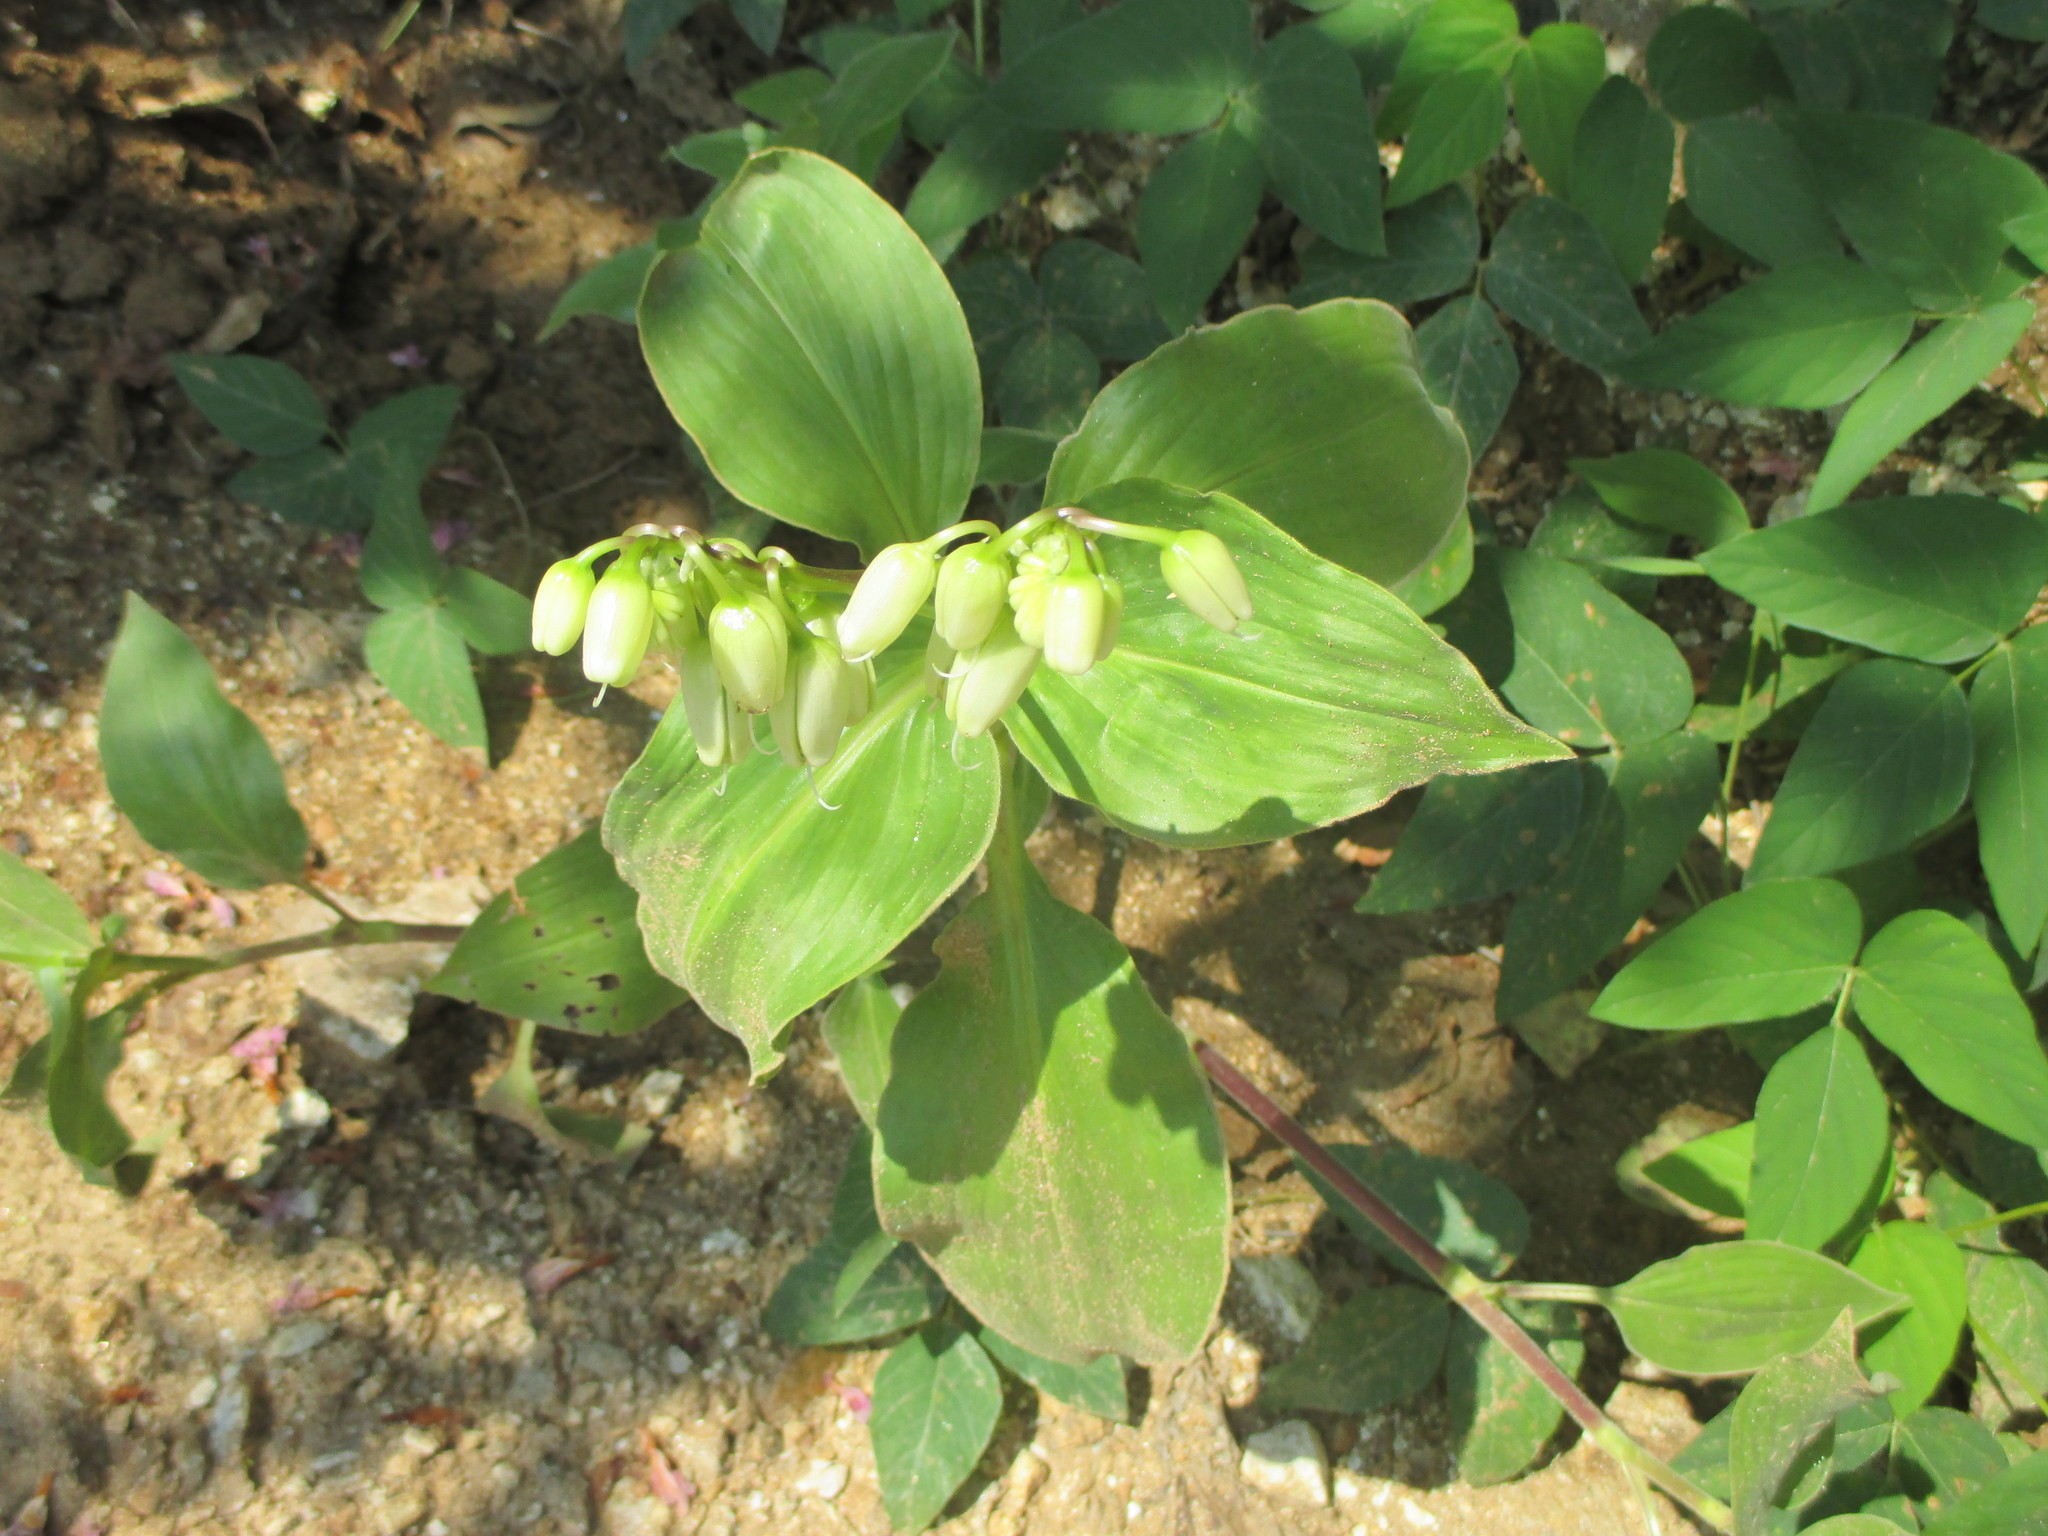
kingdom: Plantae
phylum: Tracheophyta
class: Liliopsida
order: Commelinales
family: Commelinaceae
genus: Tinantia
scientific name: Tinantia erecta
